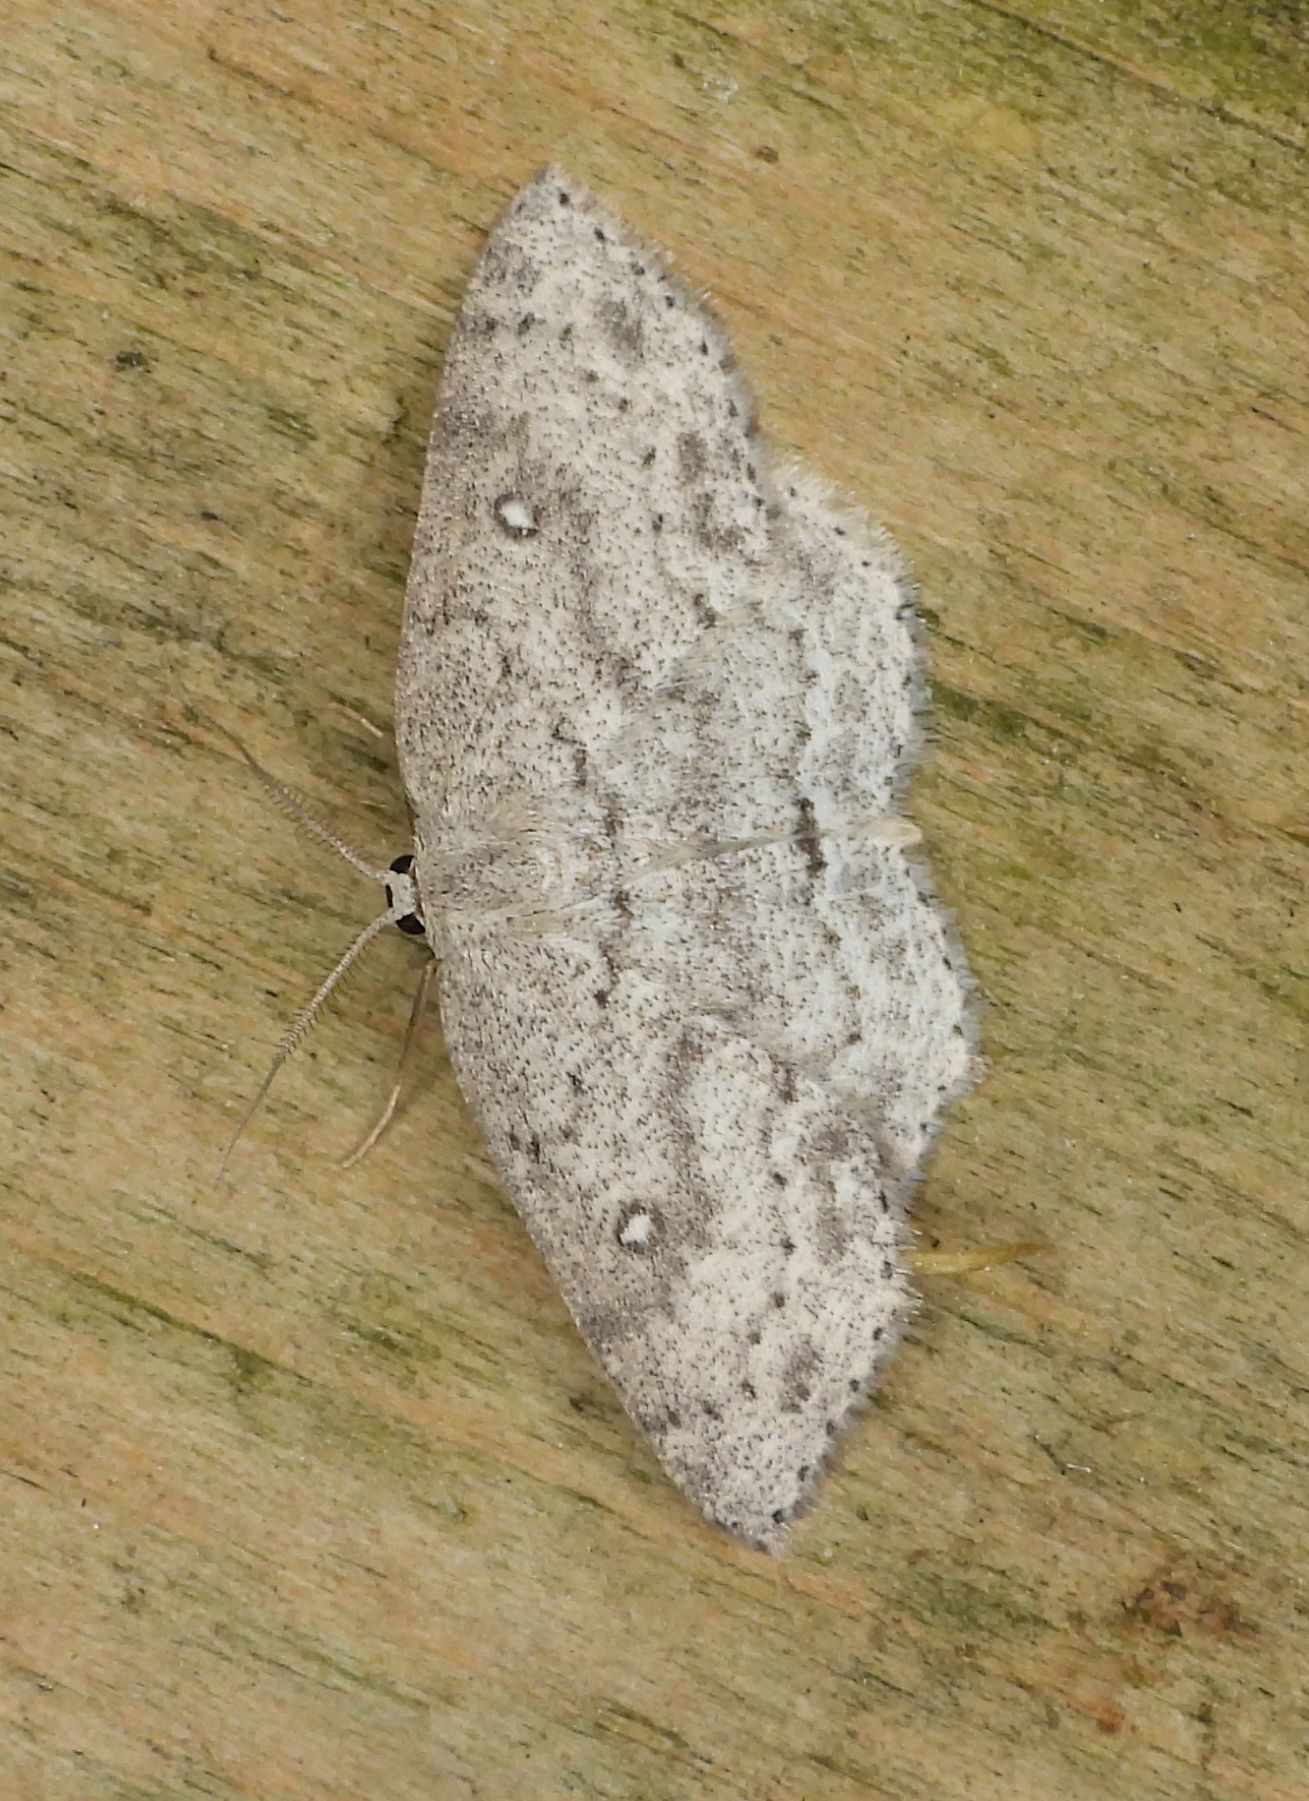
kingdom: Animalia
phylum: Arthropoda
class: Insecta
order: Lepidoptera
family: Geometridae
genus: Cyclophora
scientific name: Cyclophora pendulinaria
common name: Sweet fern geometer
